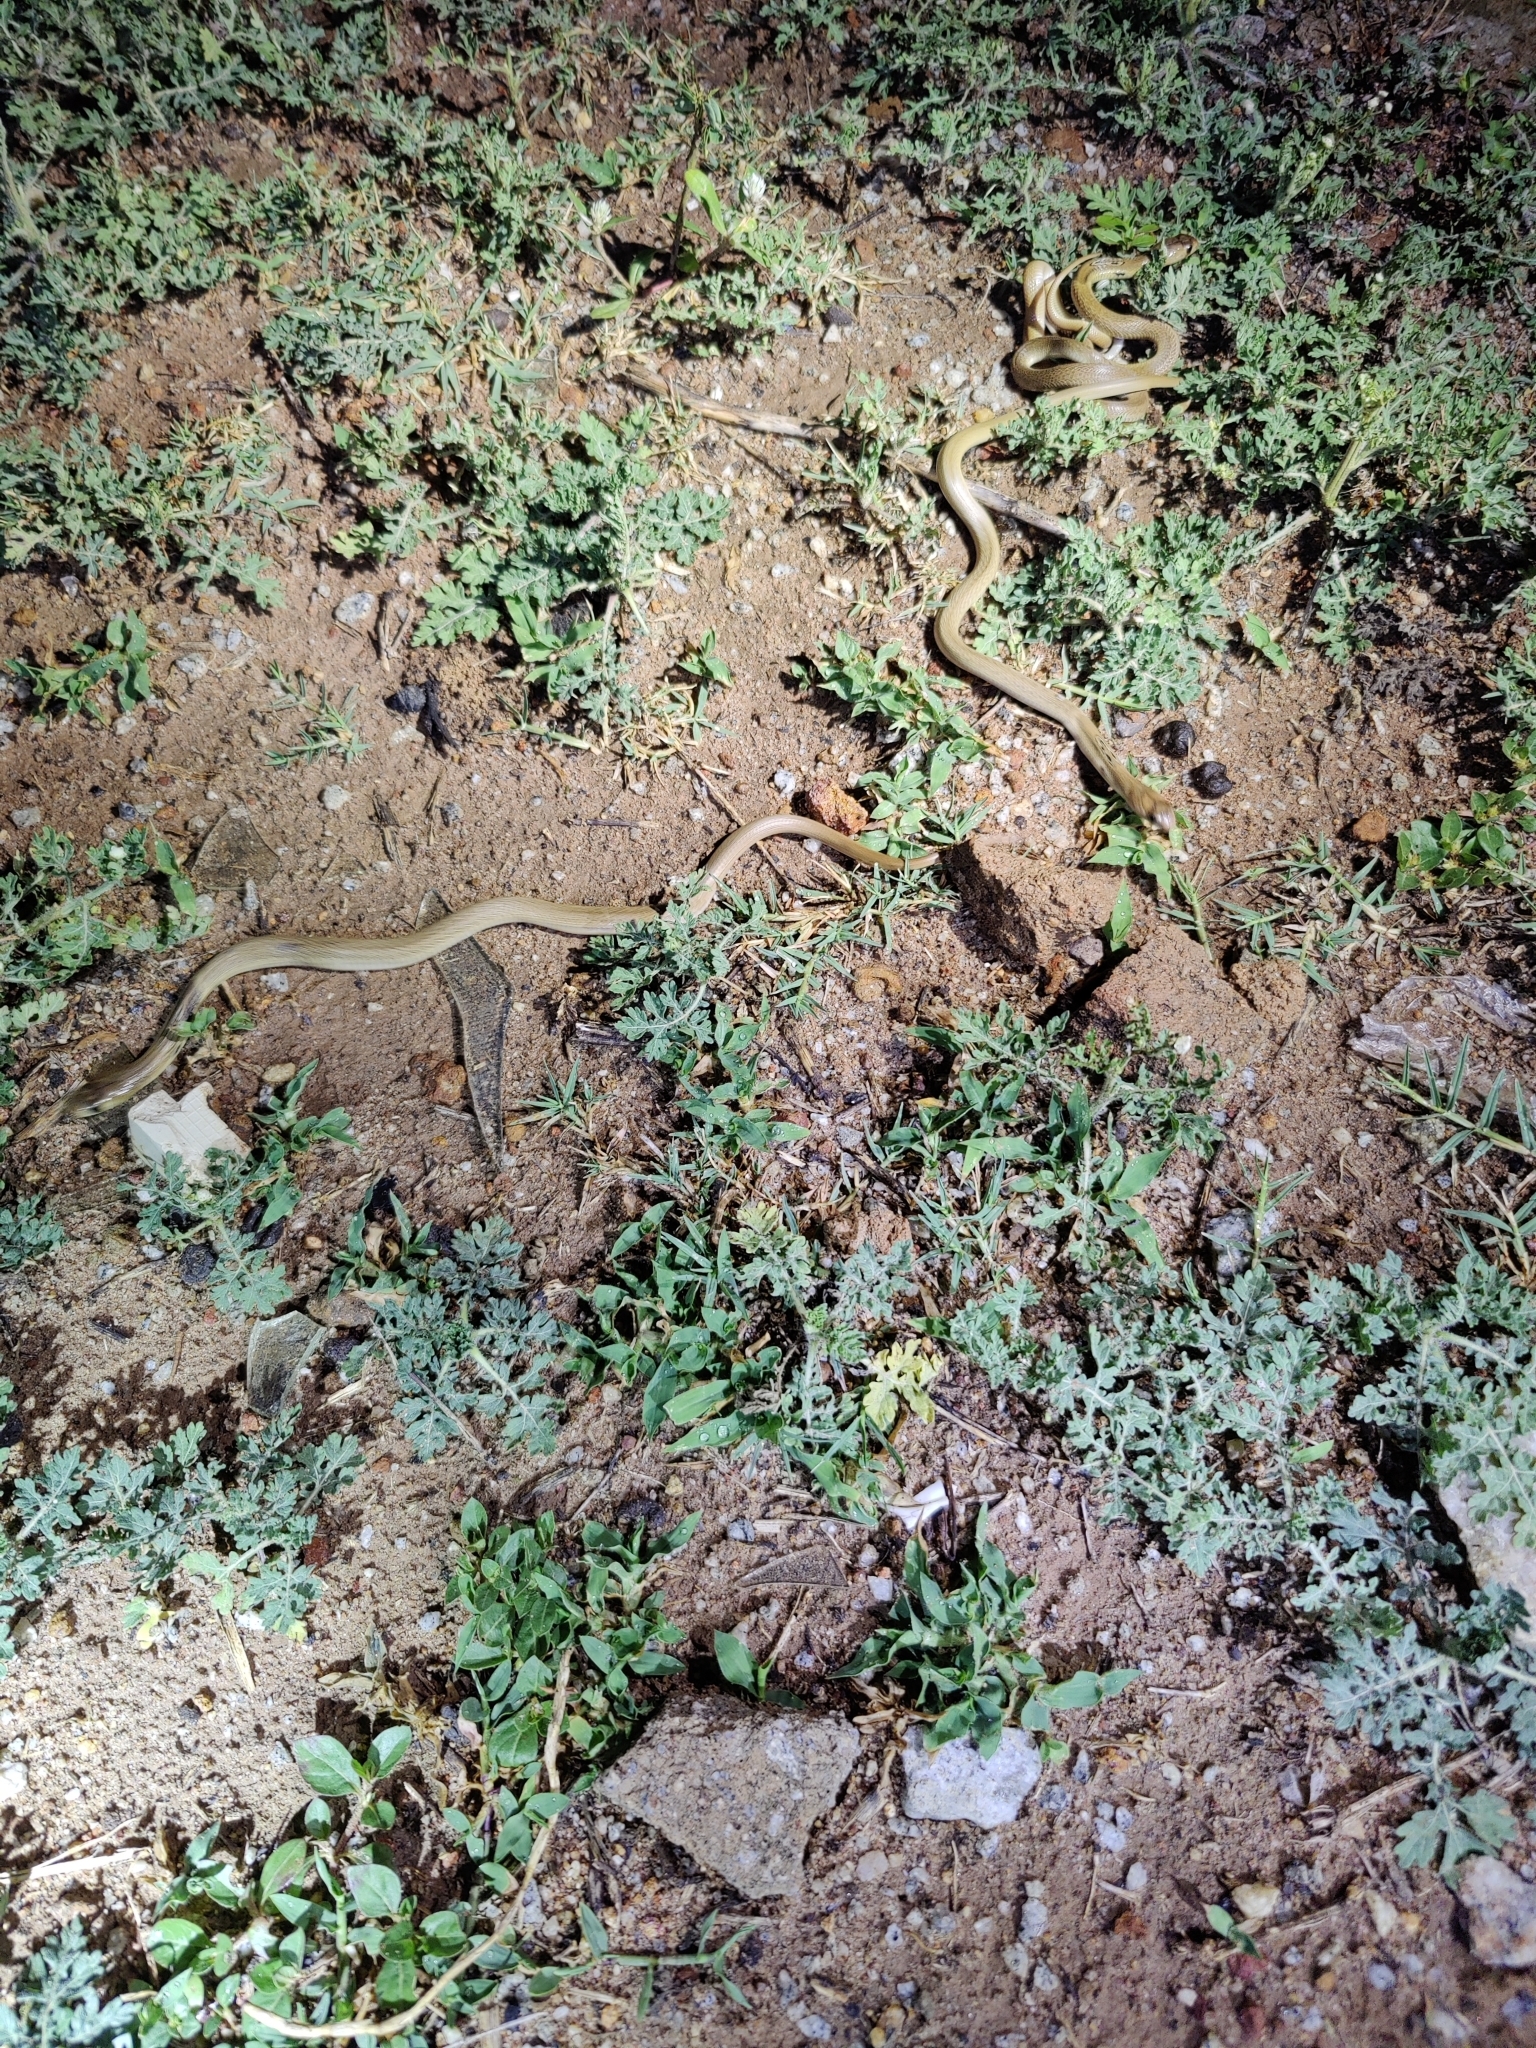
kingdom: Animalia
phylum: Chordata
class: Squamata
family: Elapidae
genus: Naja
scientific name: Naja naja
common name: Indian cobra
